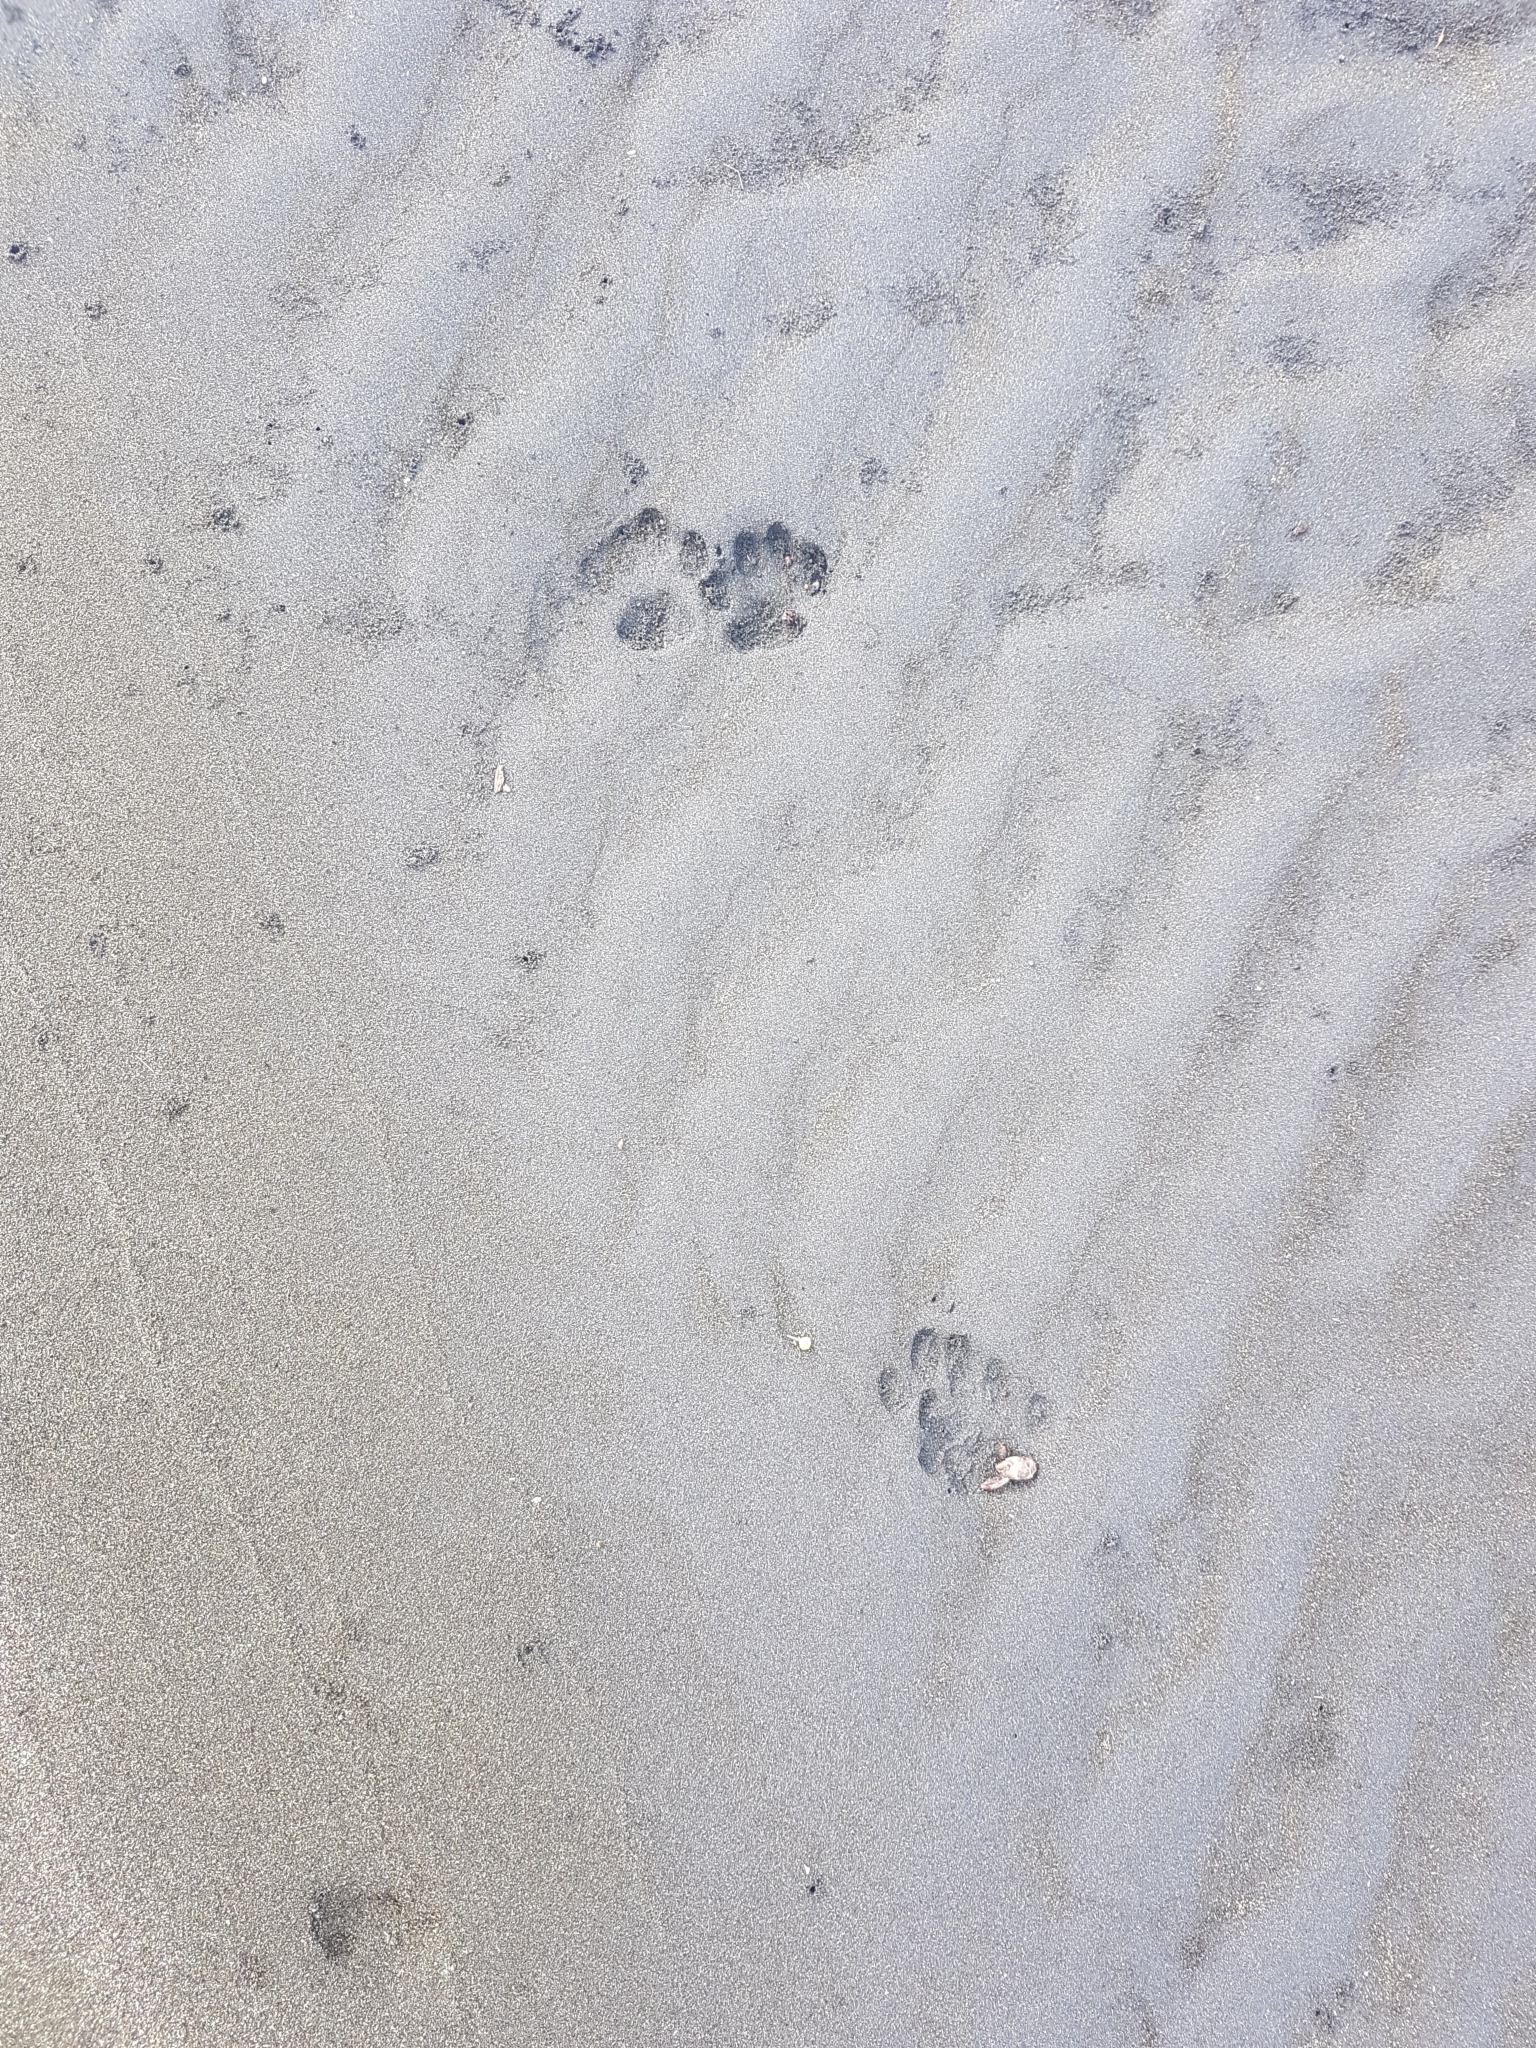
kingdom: Animalia
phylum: Chordata
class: Mammalia
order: Carnivora
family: Felidae
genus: Felis
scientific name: Felis catus
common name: Domestic cat
